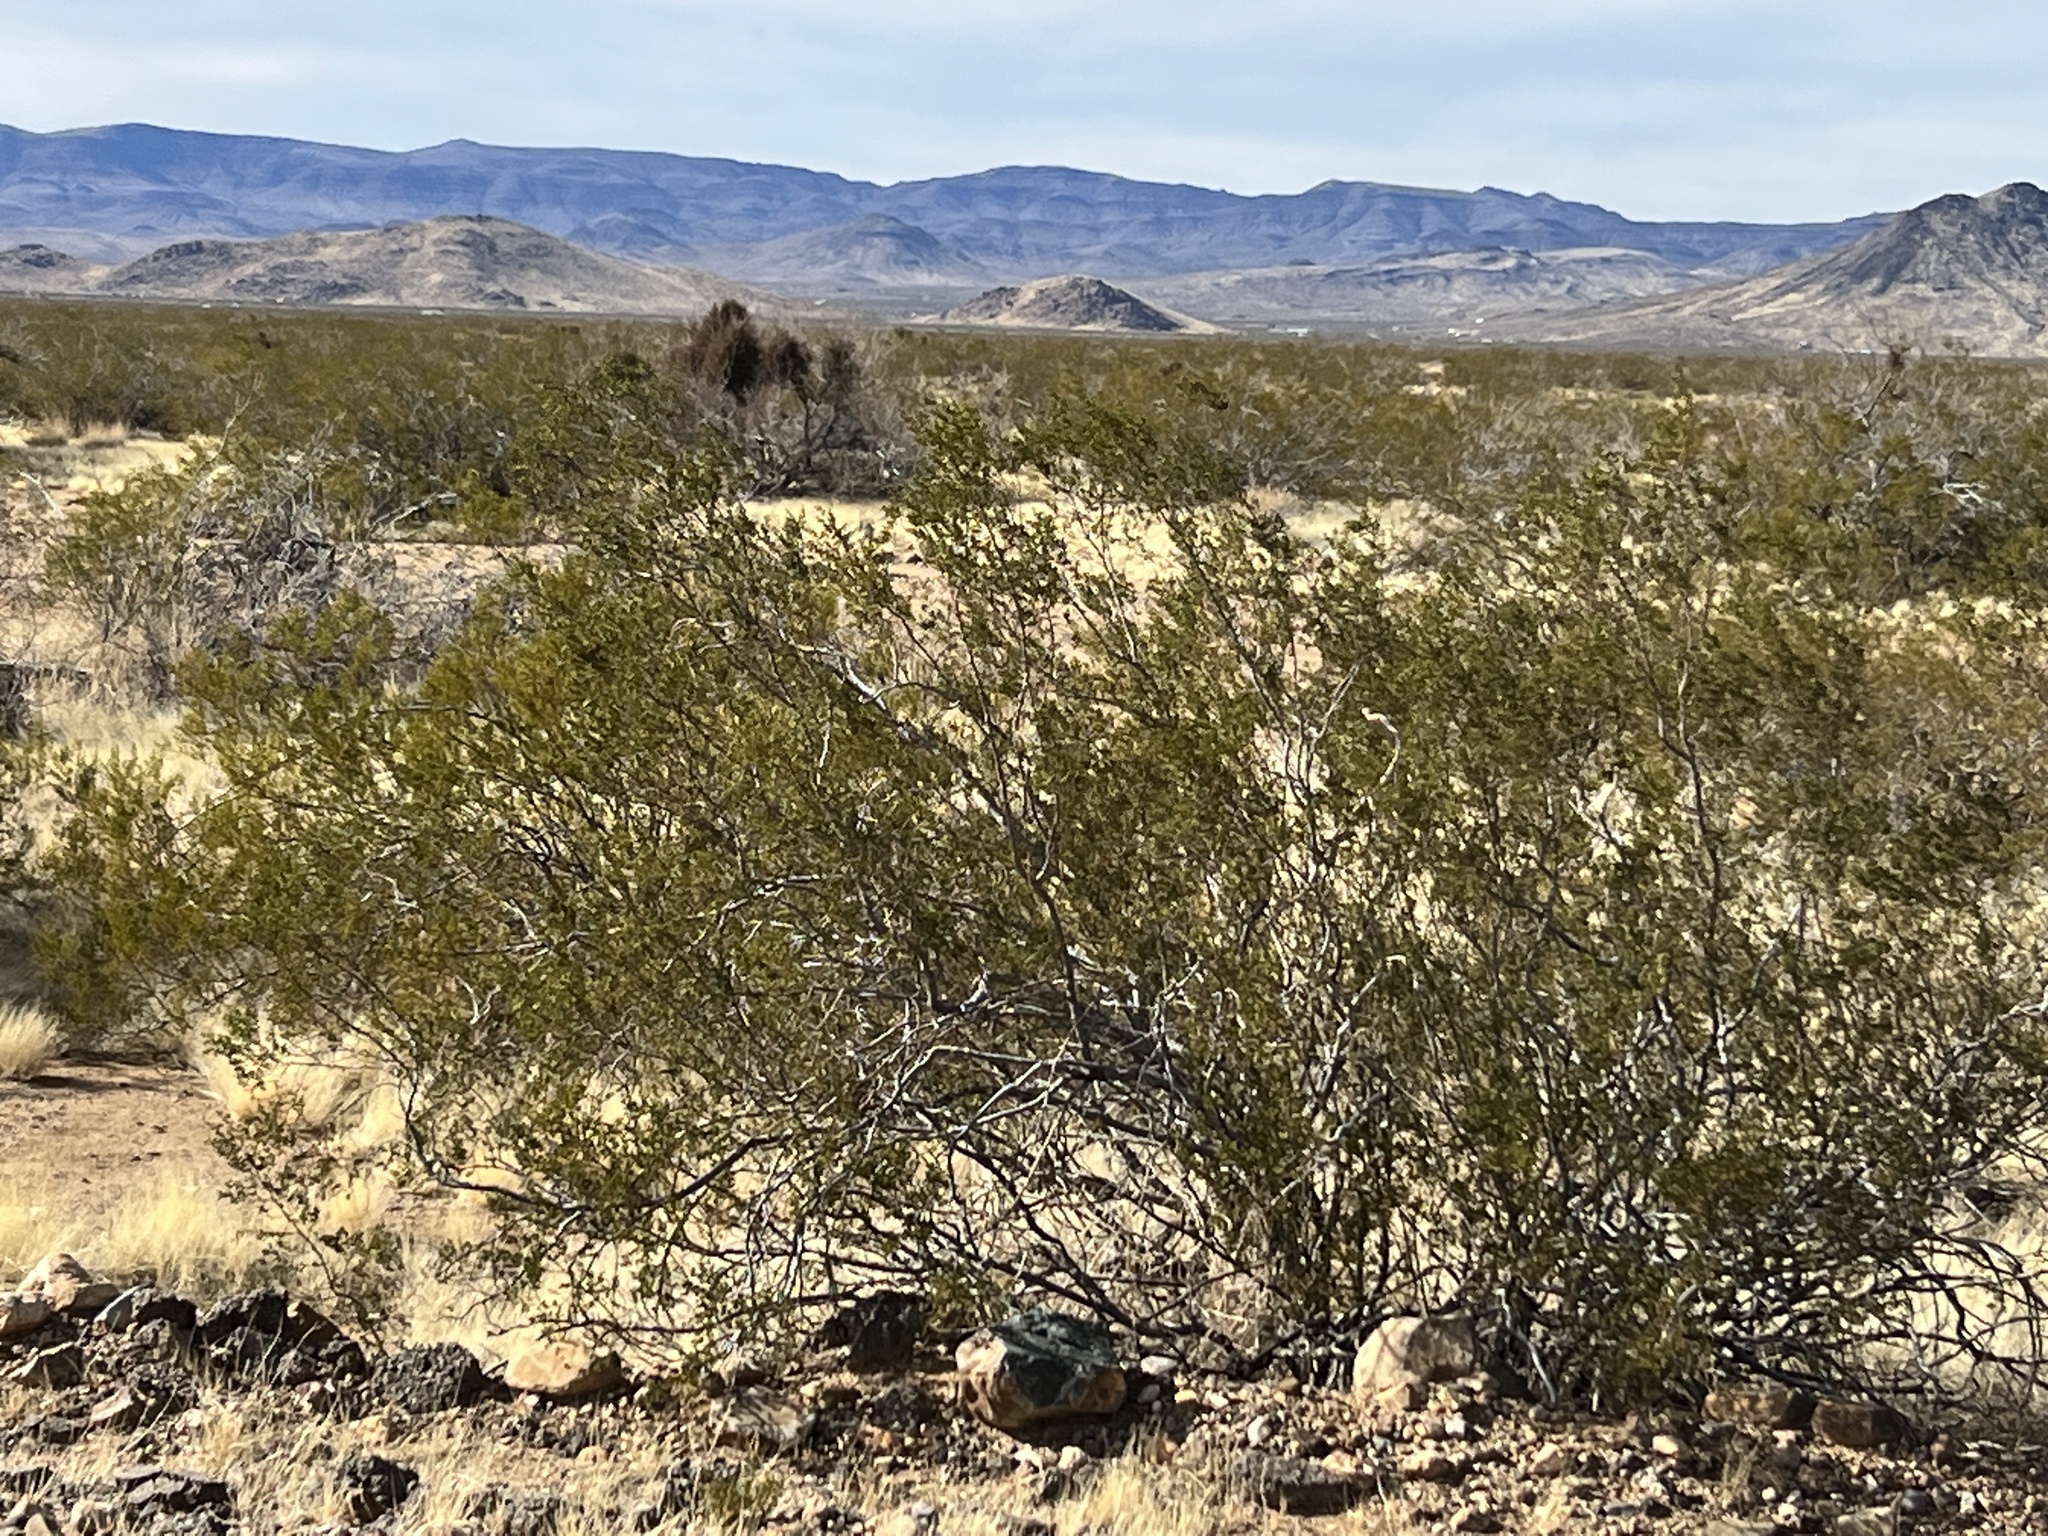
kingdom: Plantae
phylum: Tracheophyta
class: Magnoliopsida
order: Zygophyllales
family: Zygophyllaceae
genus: Larrea
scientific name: Larrea tridentata
